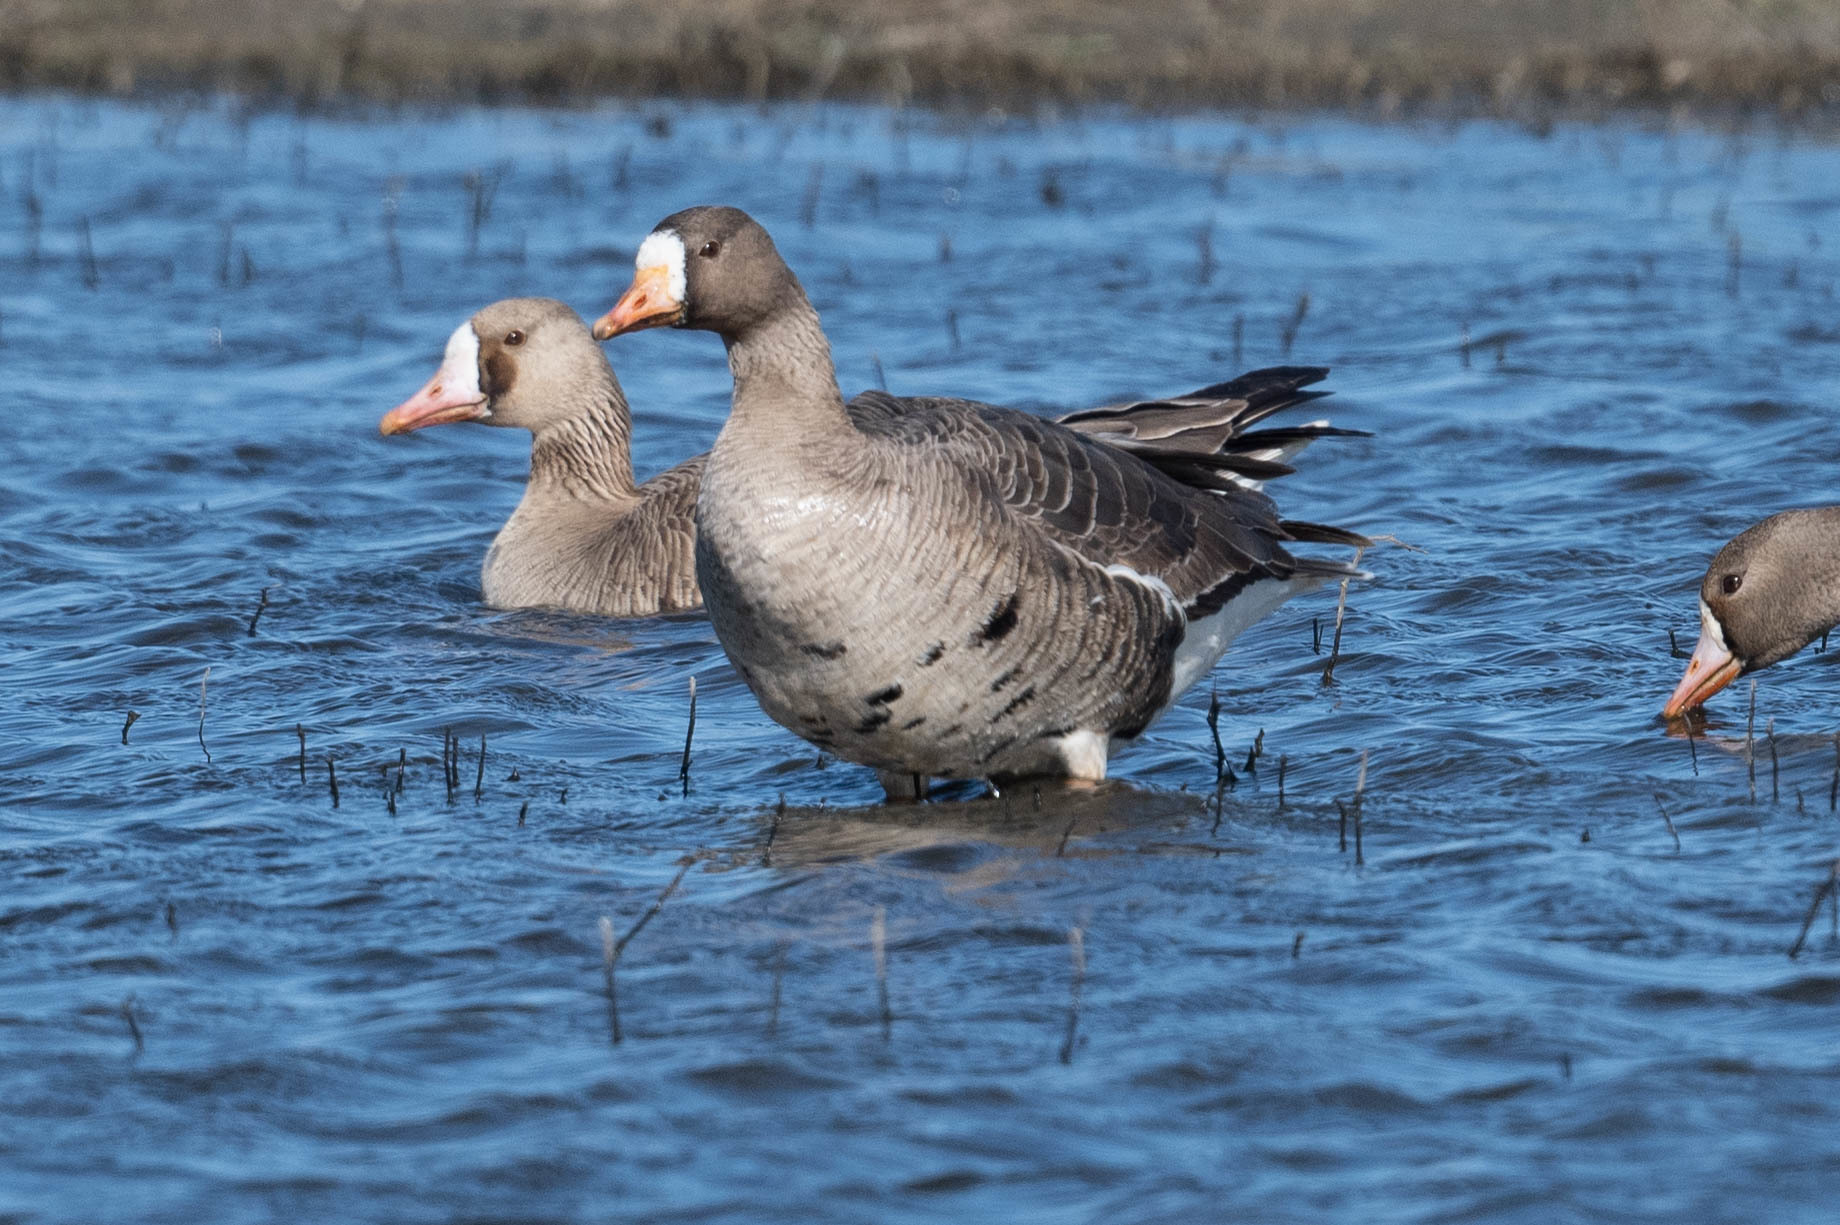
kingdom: Animalia
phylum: Chordata
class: Aves
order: Anseriformes
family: Anatidae
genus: Anser
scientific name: Anser albifrons
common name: Greater white-fronted goose
